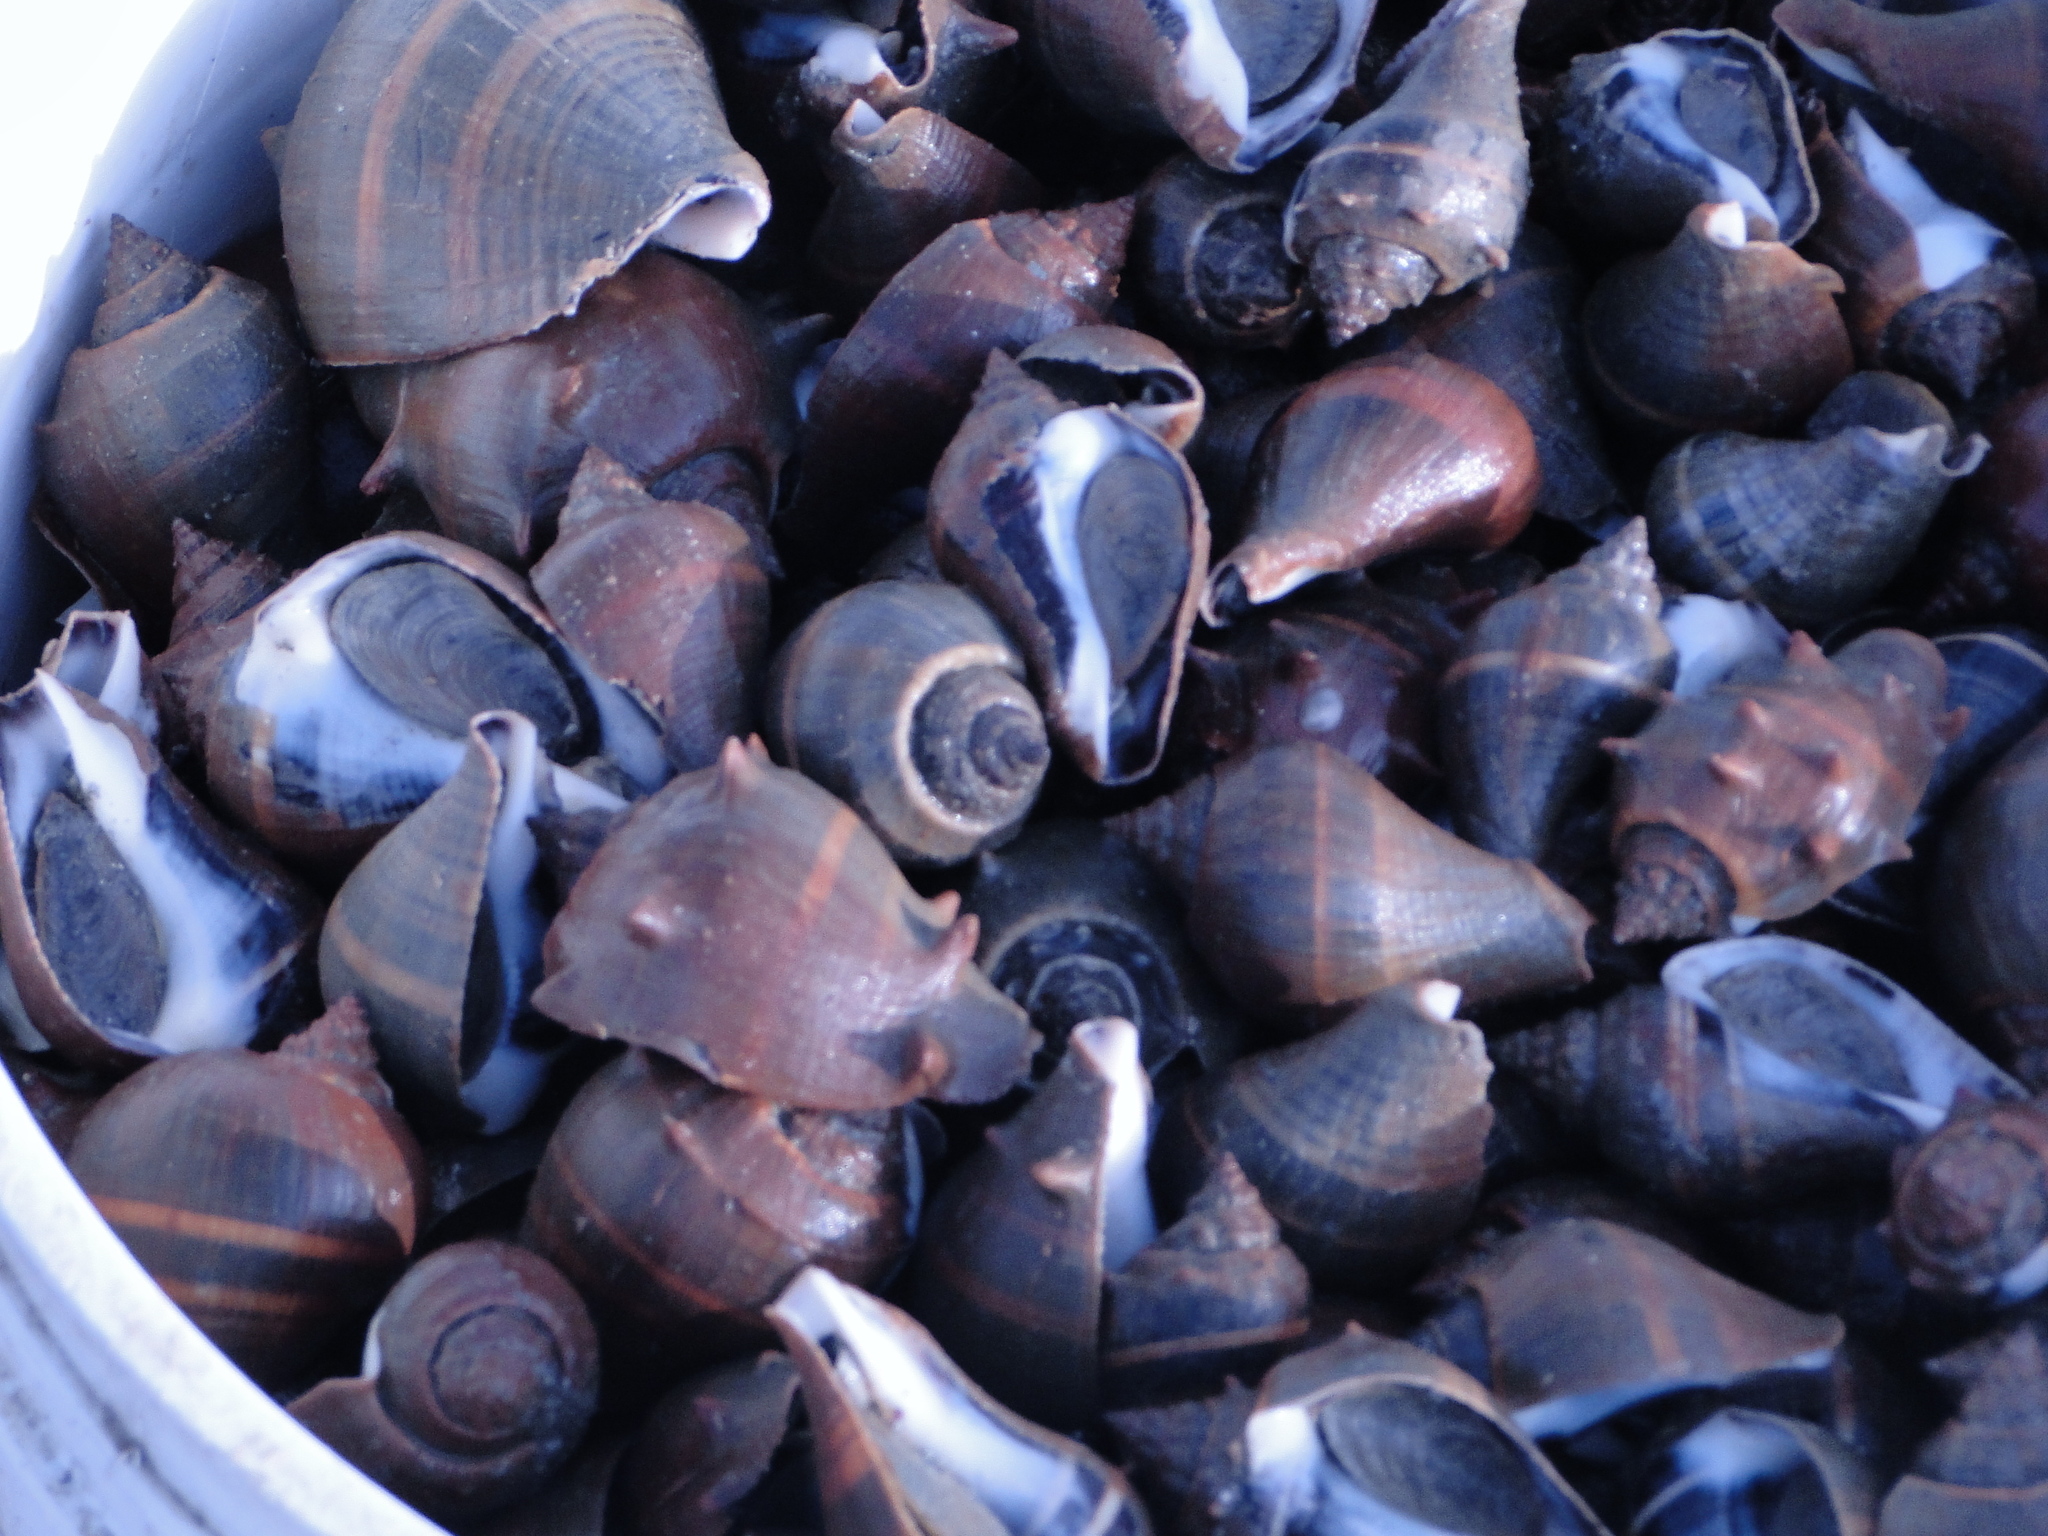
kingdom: Animalia
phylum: Mollusca
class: Gastropoda
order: Neogastropoda
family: Melongenidae
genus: Melongena
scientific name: Melongena melongena
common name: West indian crown conch
